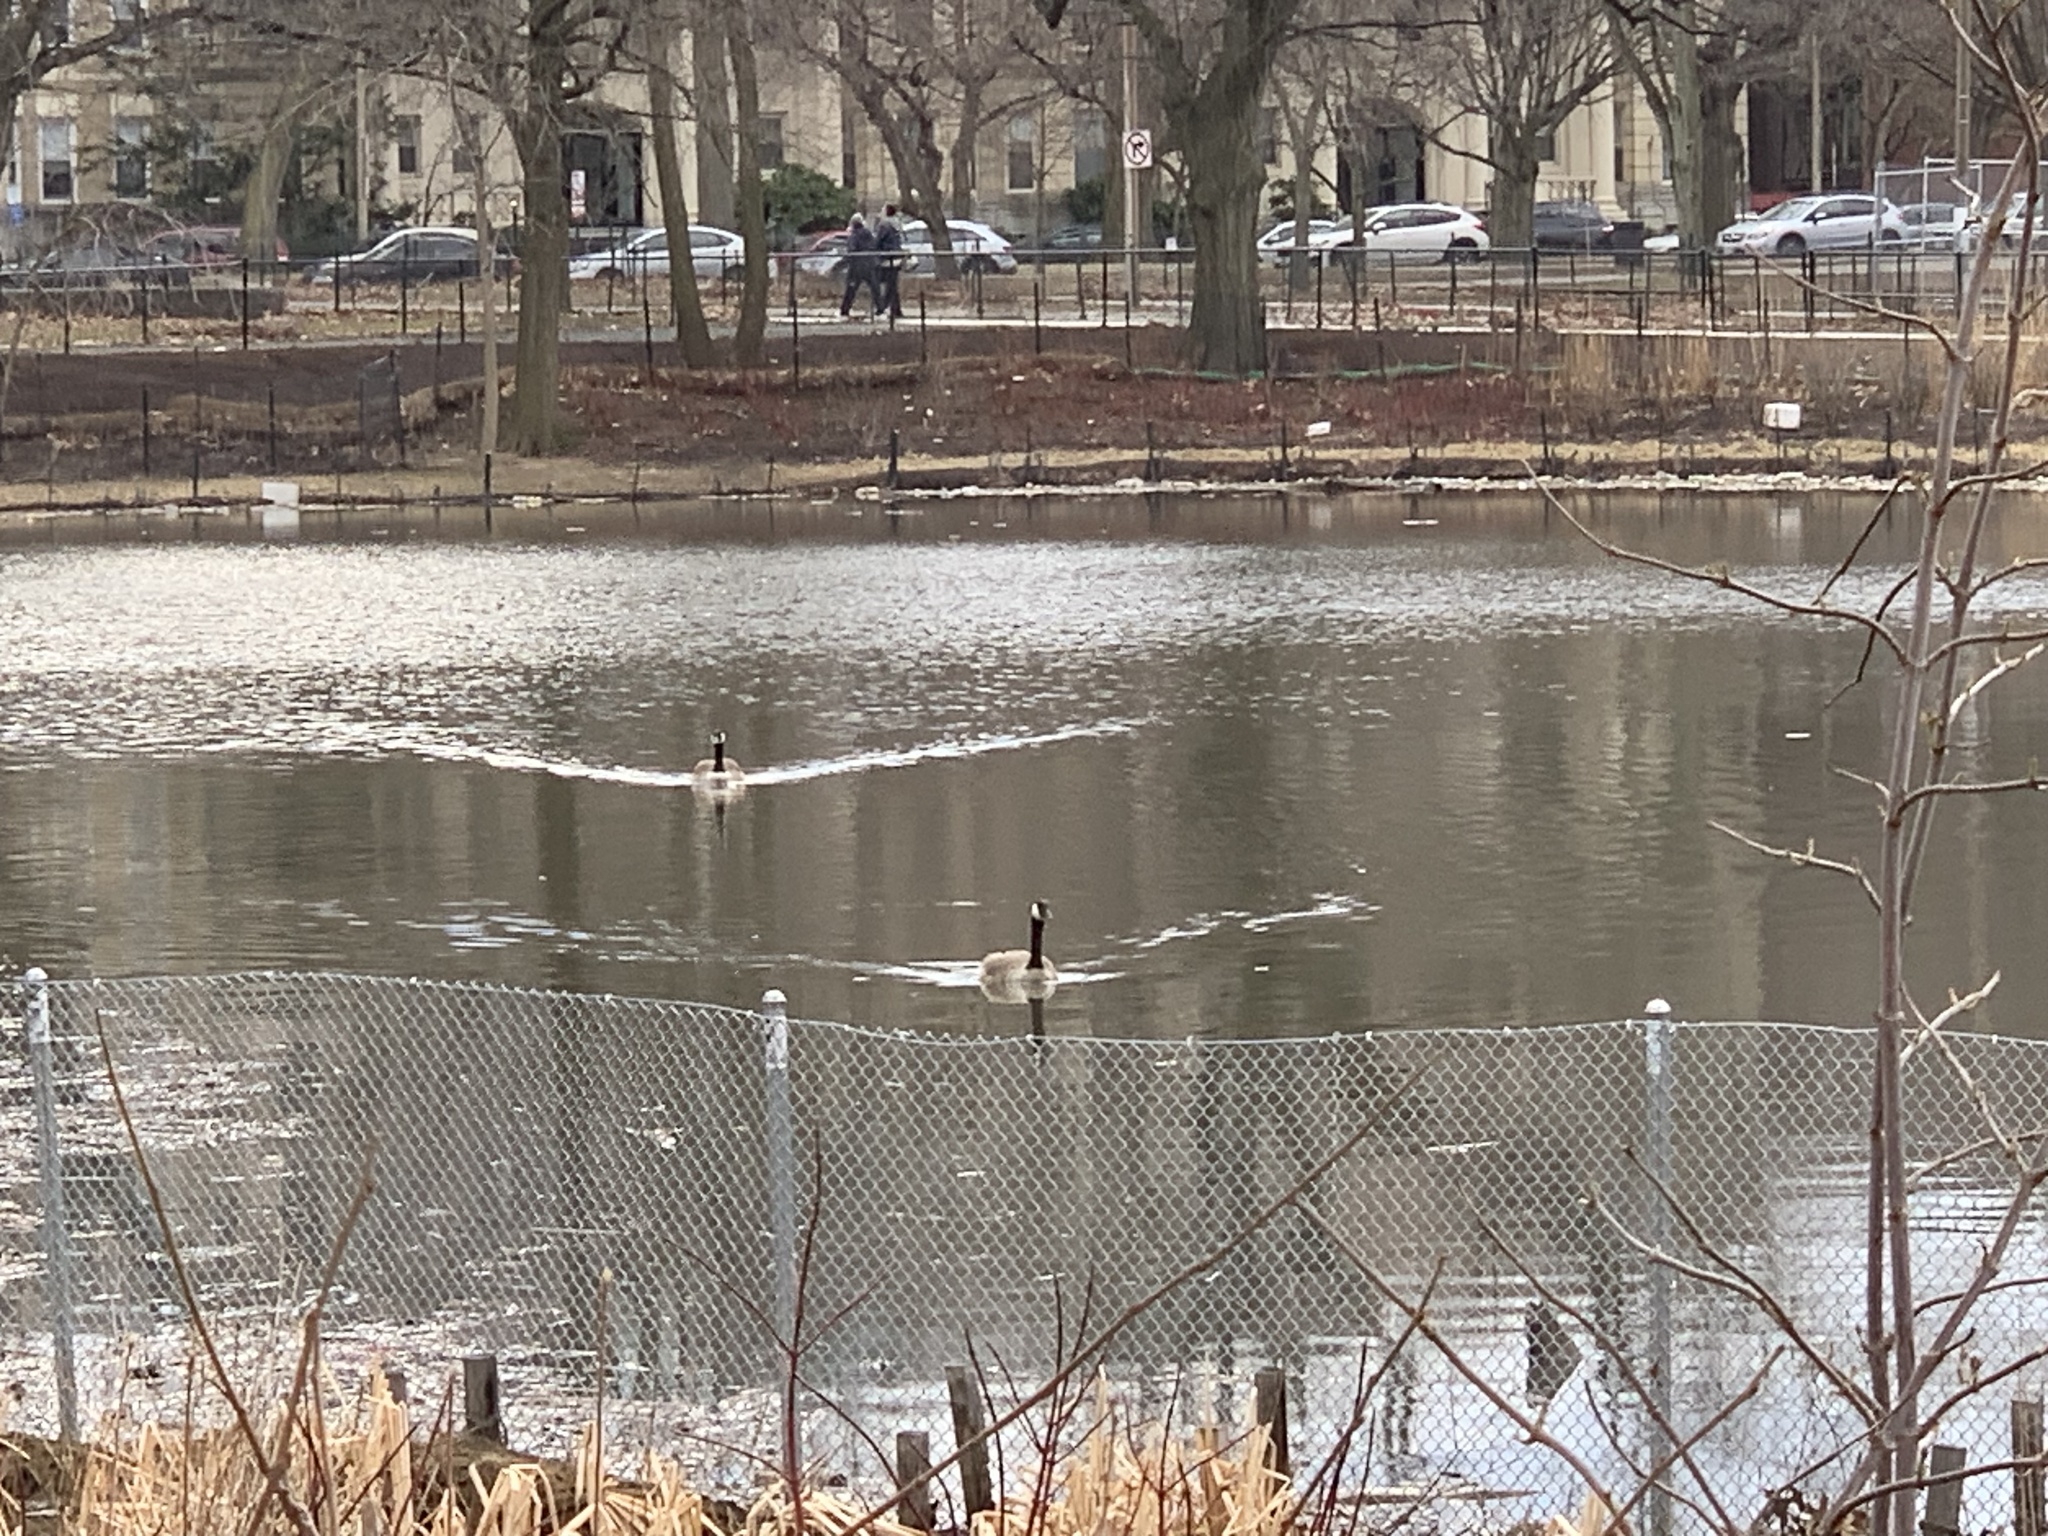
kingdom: Animalia
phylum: Chordata
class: Aves
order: Anseriformes
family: Anatidae
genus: Branta
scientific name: Branta canadensis
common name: Canada goose
